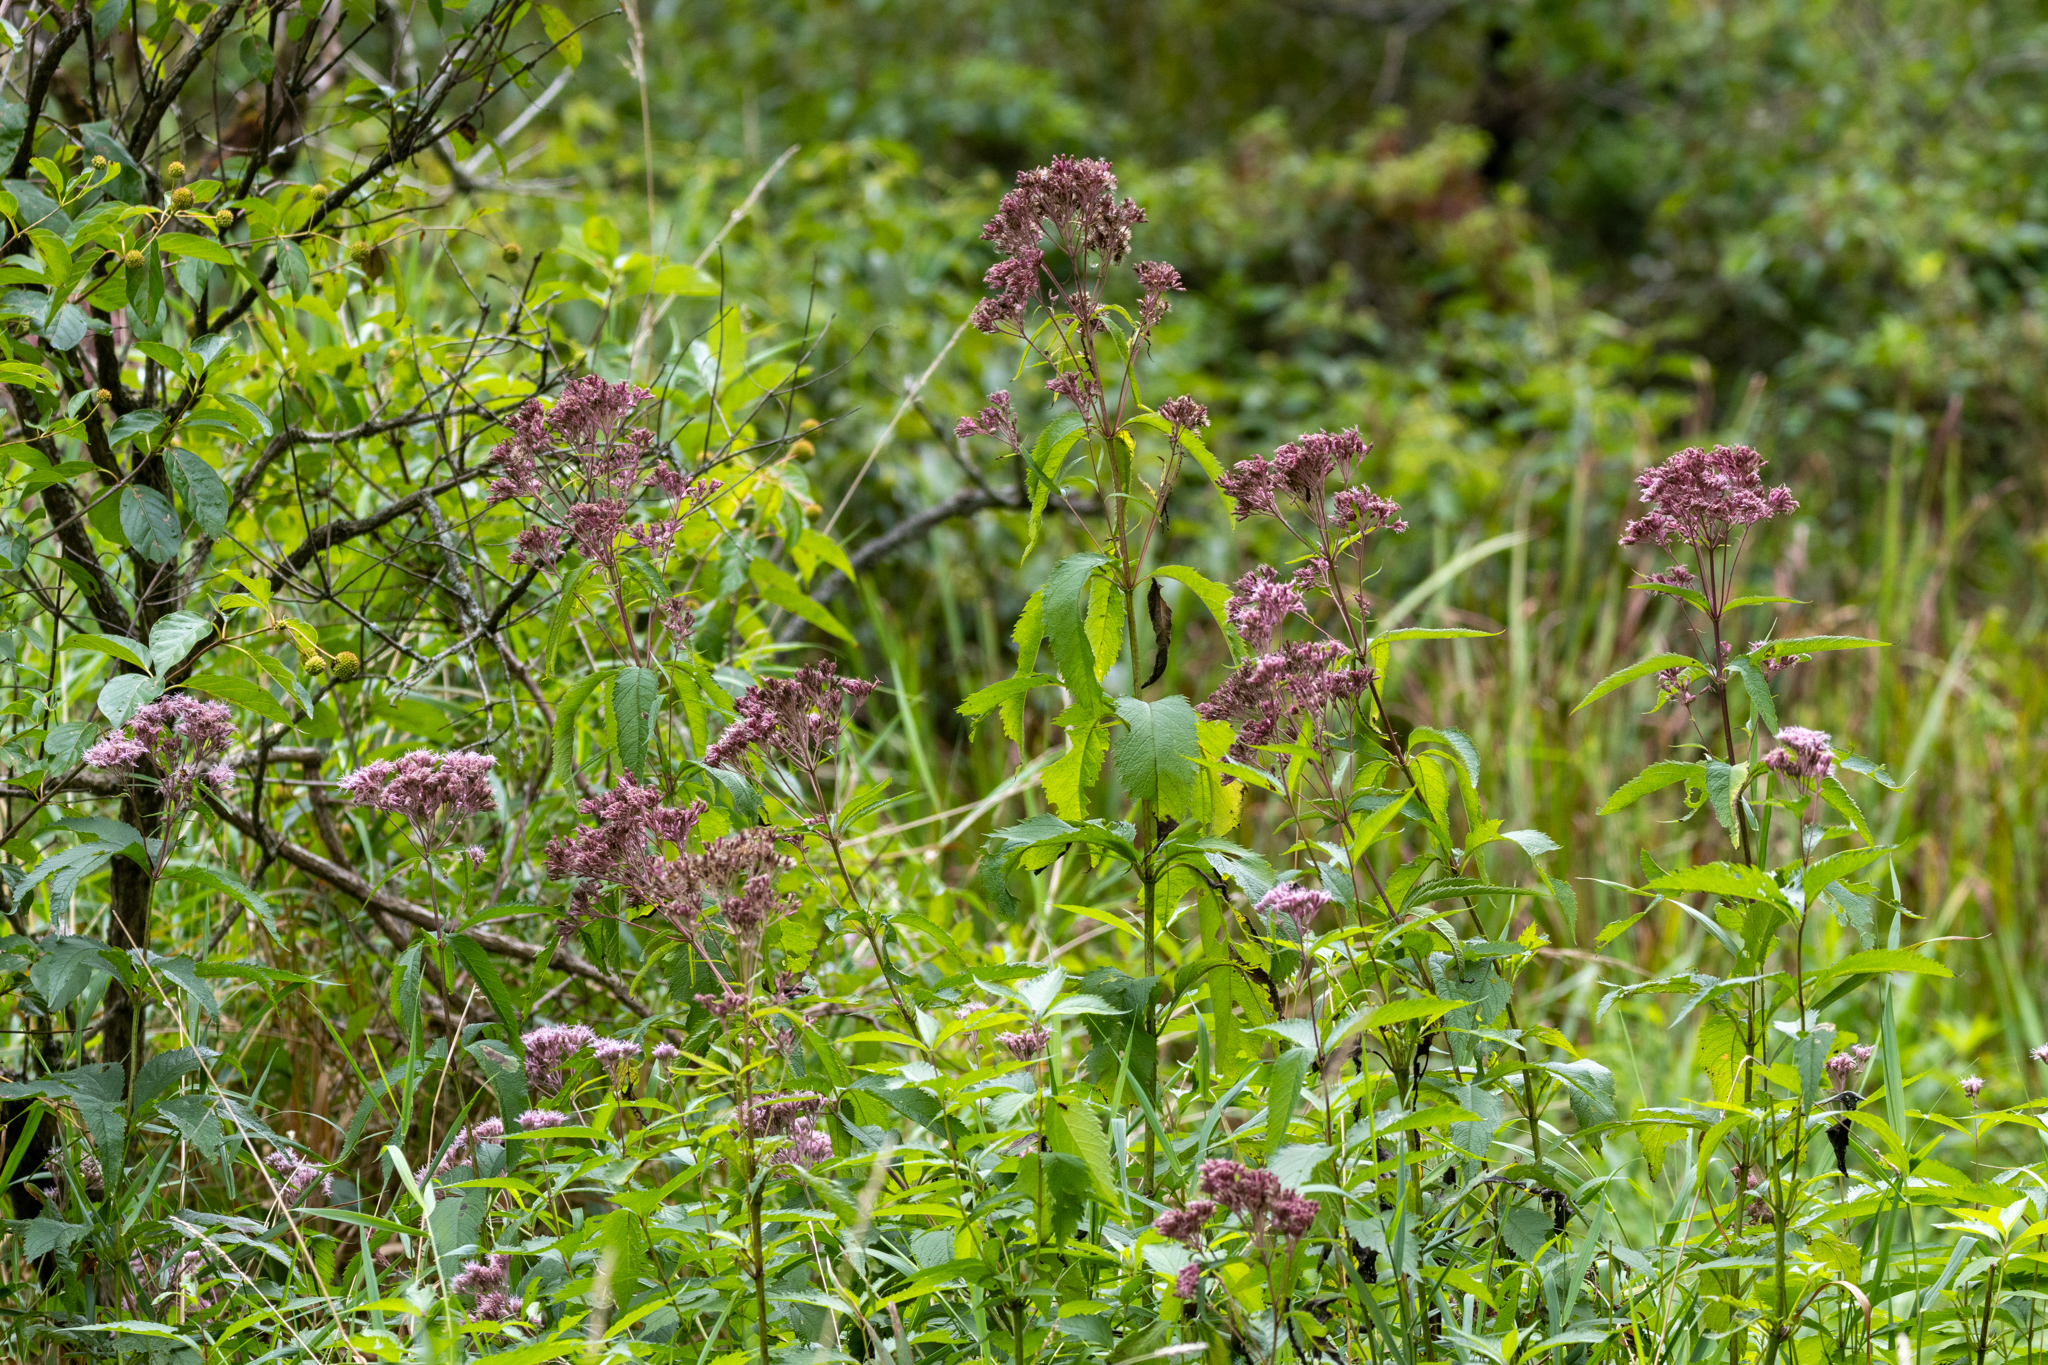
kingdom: Plantae
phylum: Tracheophyta
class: Magnoliopsida
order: Asterales
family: Asteraceae
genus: Eutrochium
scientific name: Eutrochium maculatum
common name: Spotted joe pye weed
